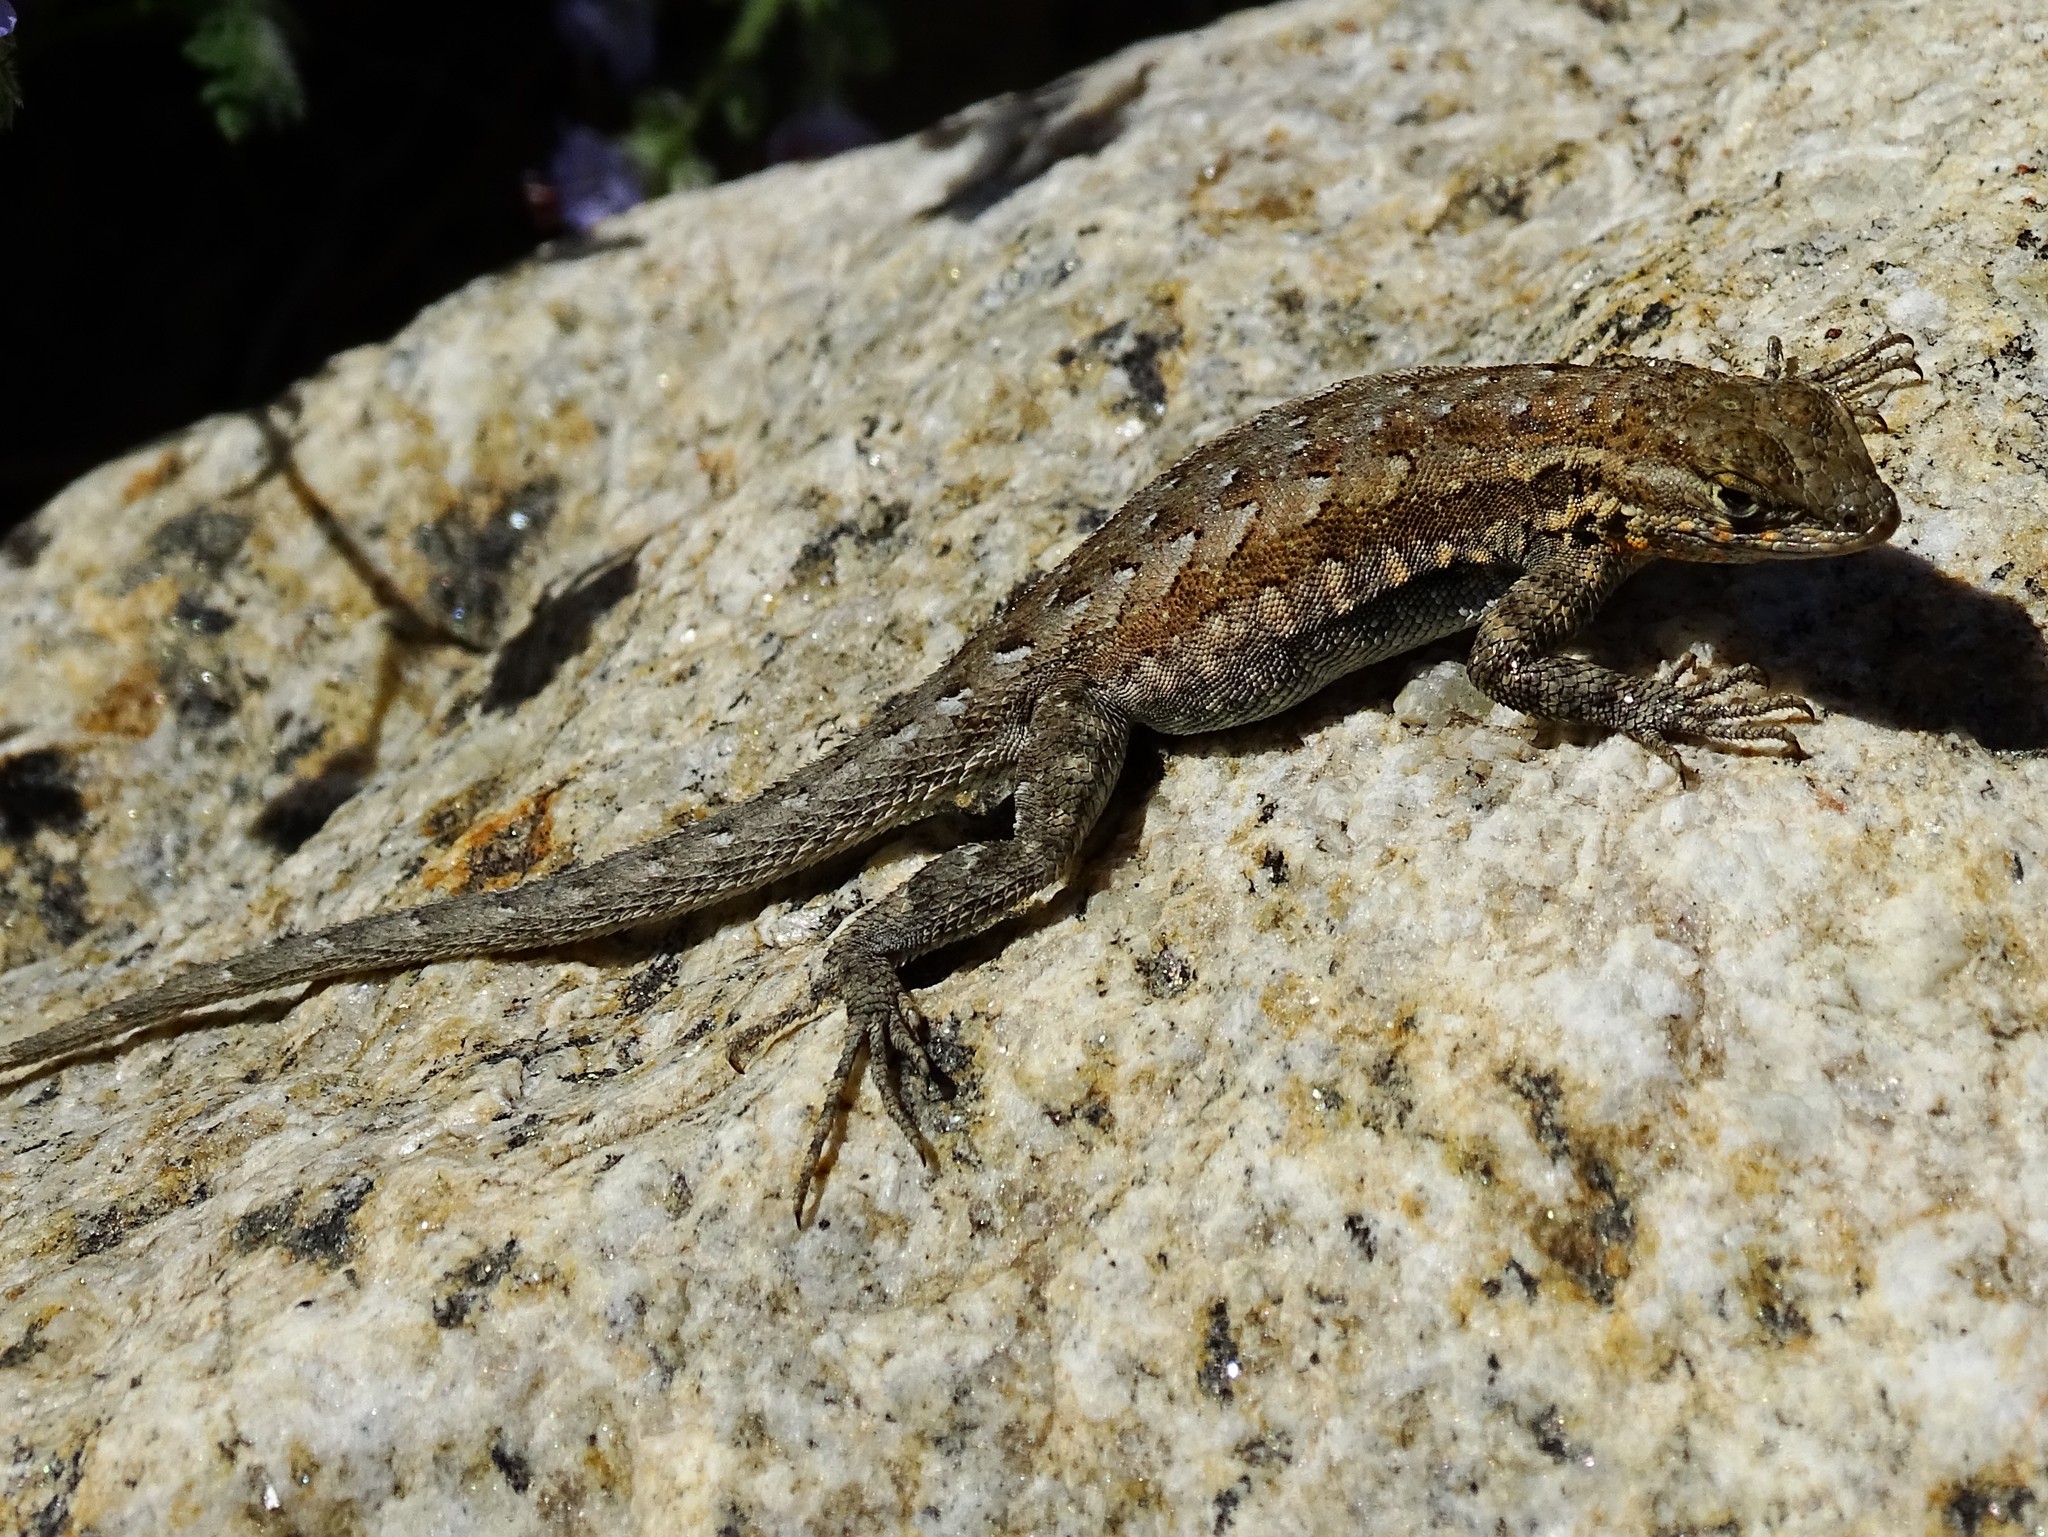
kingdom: Animalia
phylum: Chordata
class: Squamata
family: Phrynosomatidae
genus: Uta
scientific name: Uta stansburiana
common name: Side-blotched lizard
